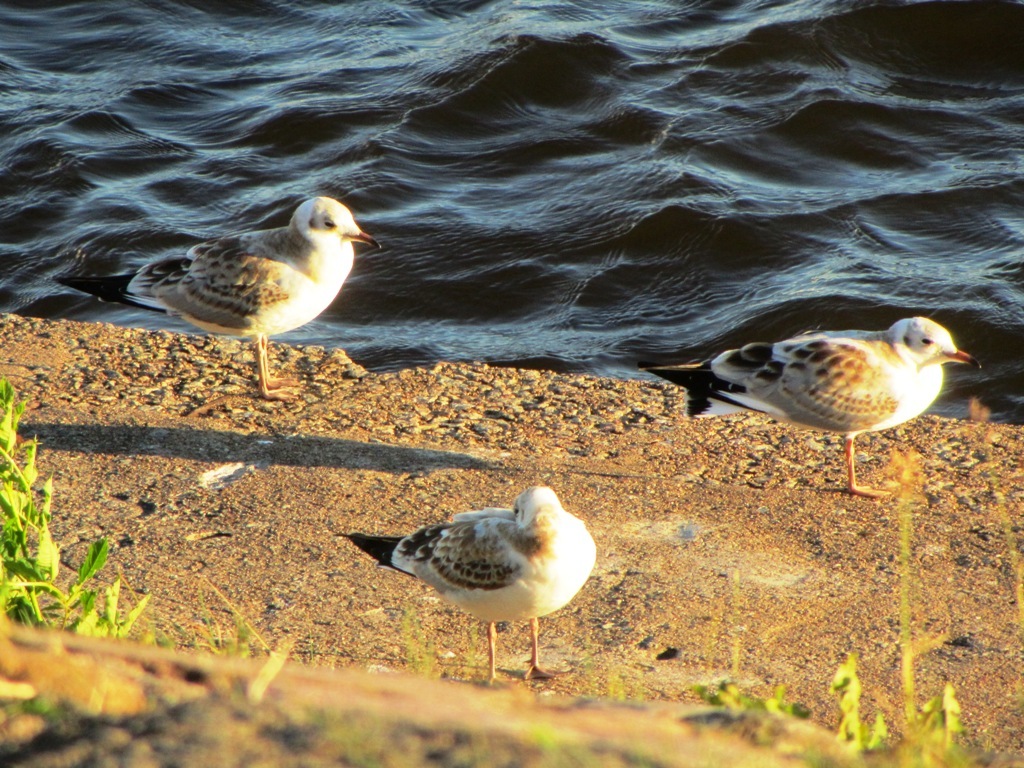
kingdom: Animalia
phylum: Chordata
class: Aves
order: Charadriiformes
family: Laridae
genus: Chroicocephalus
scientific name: Chroicocephalus ridibundus
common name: Black-headed gull
